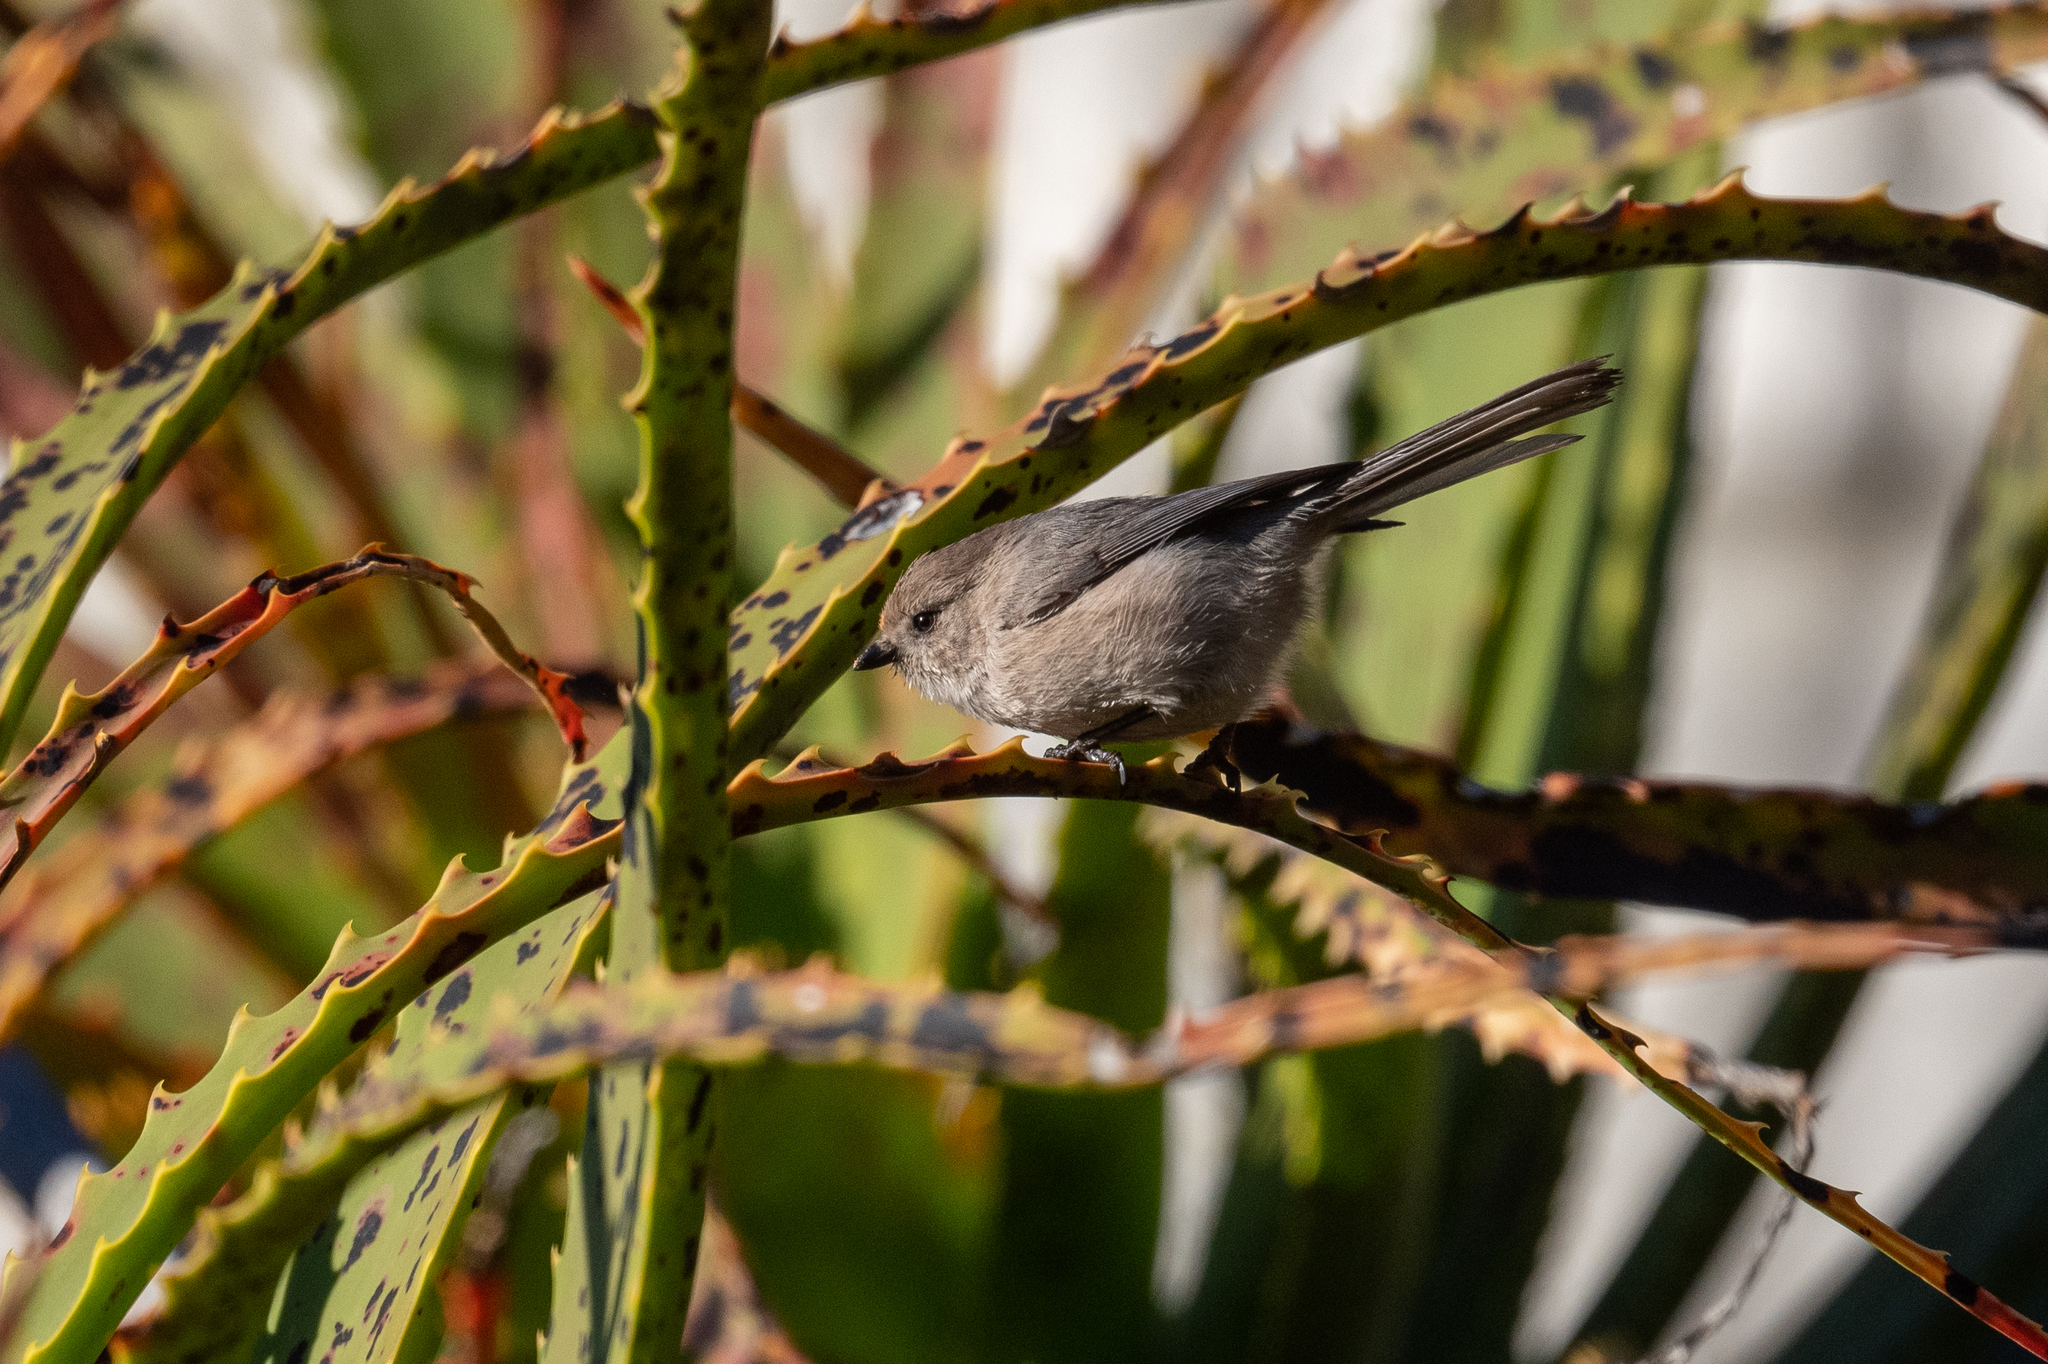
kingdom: Animalia
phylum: Chordata
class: Aves
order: Passeriformes
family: Aegithalidae
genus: Psaltriparus
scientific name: Psaltriparus minimus
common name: American bushtit
